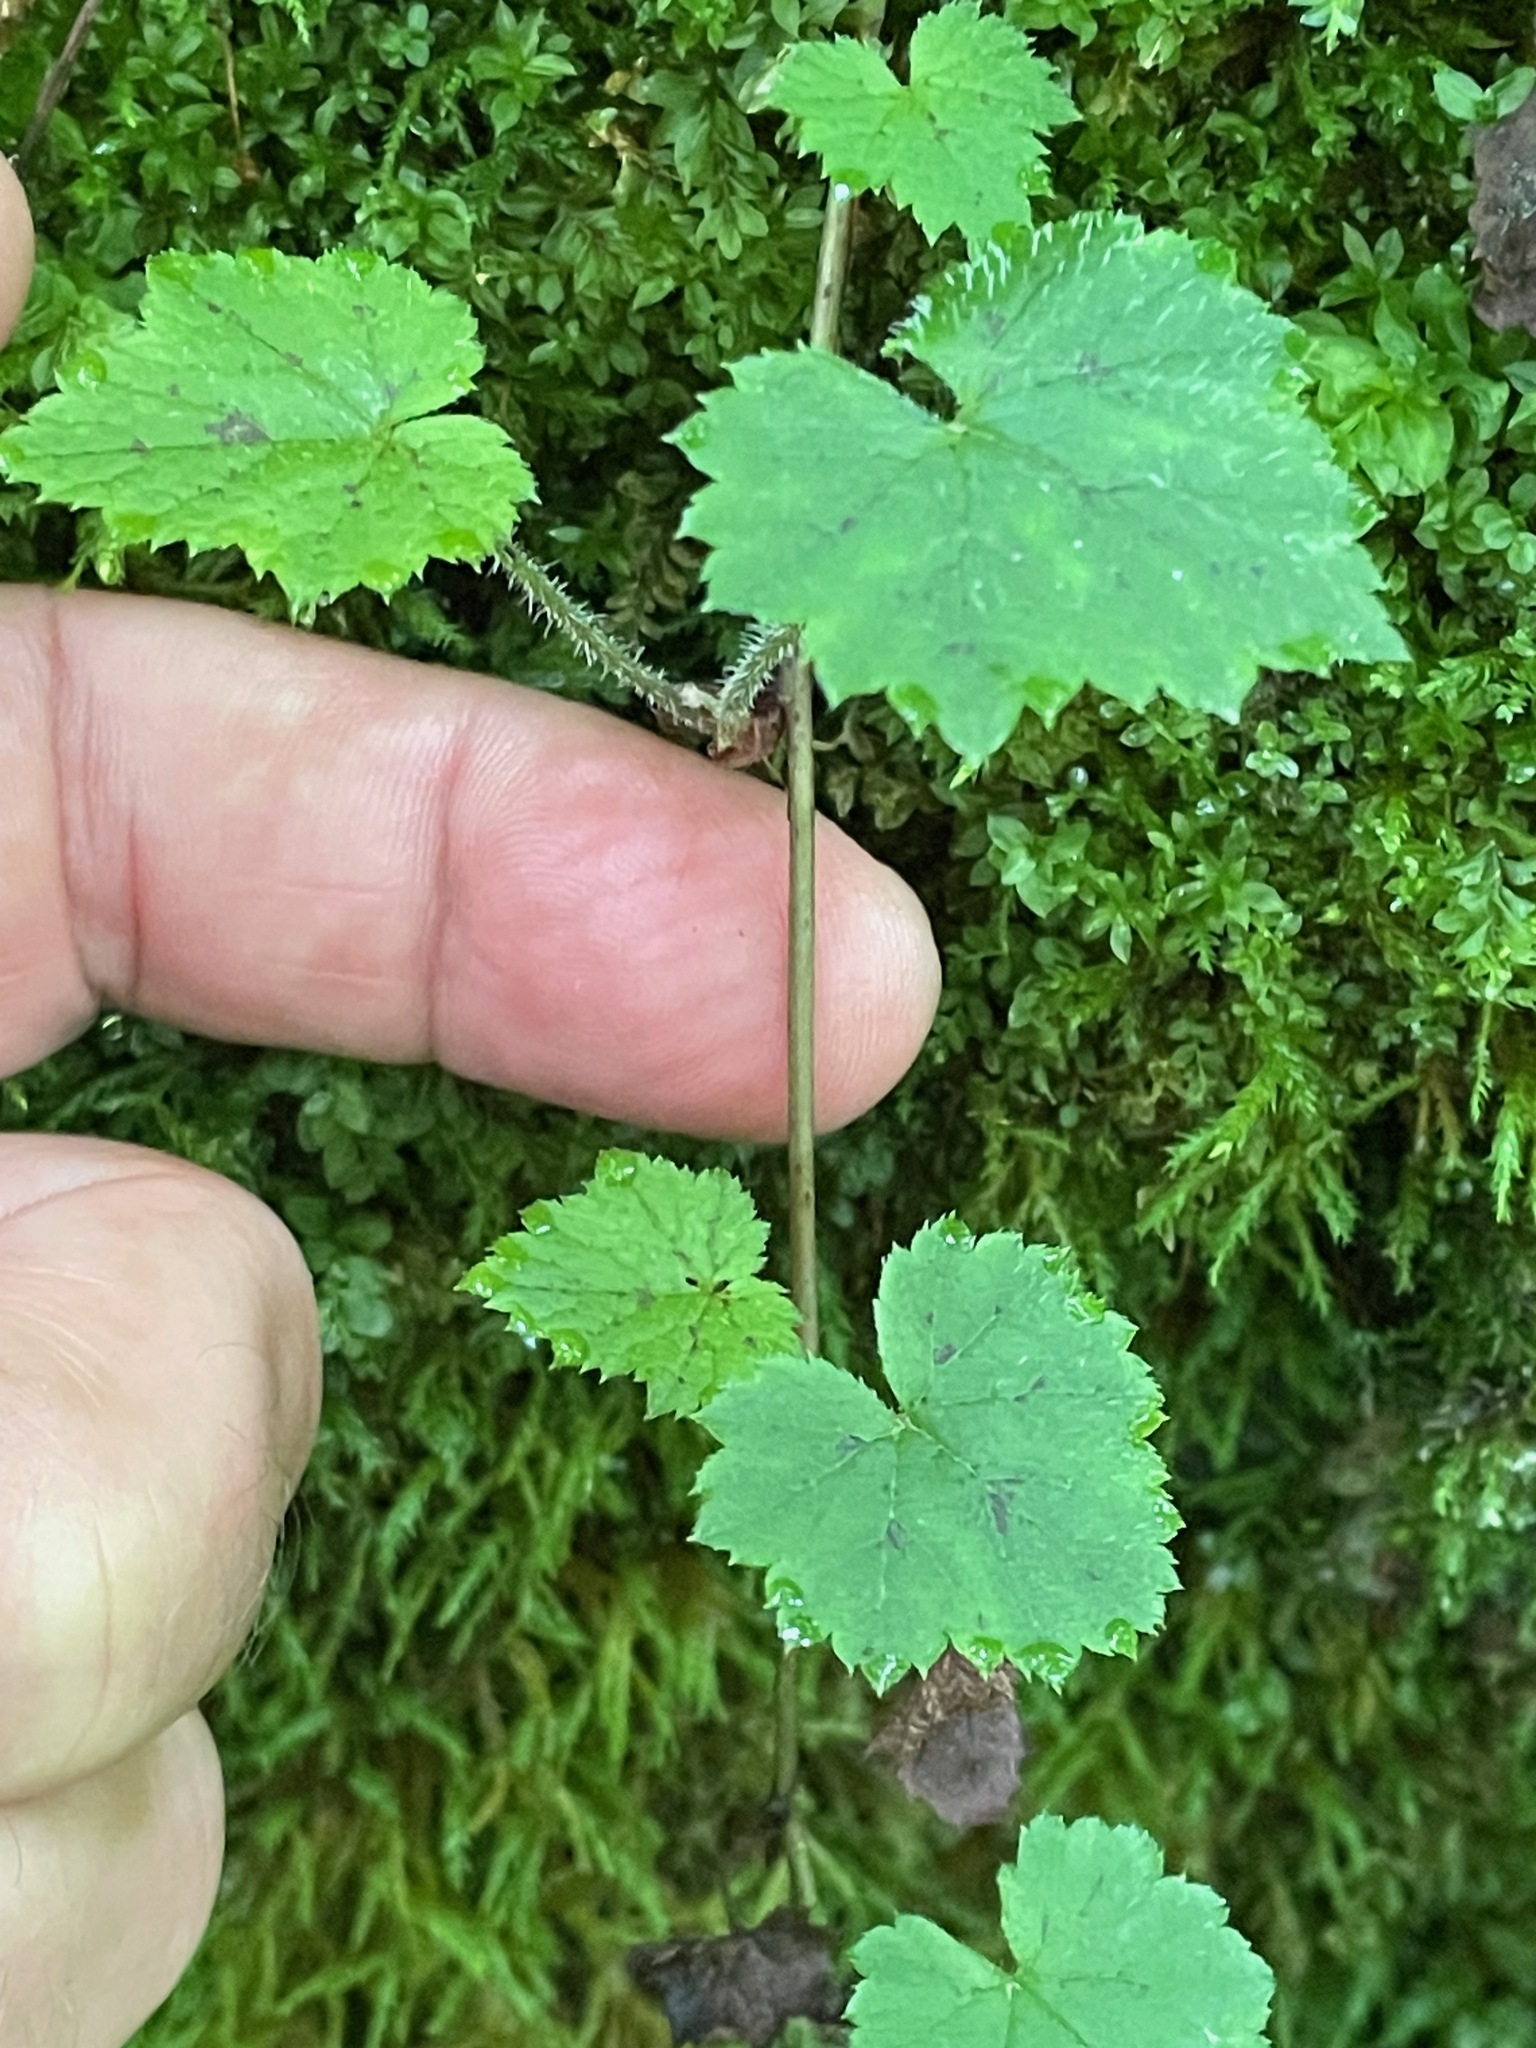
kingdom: Plantae
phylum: Tracheophyta
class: Magnoliopsida
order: Saxifragales
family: Saxifragaceae
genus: Tiarella
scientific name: Tiarella stolonifera
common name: Stoloniferous foamflower
